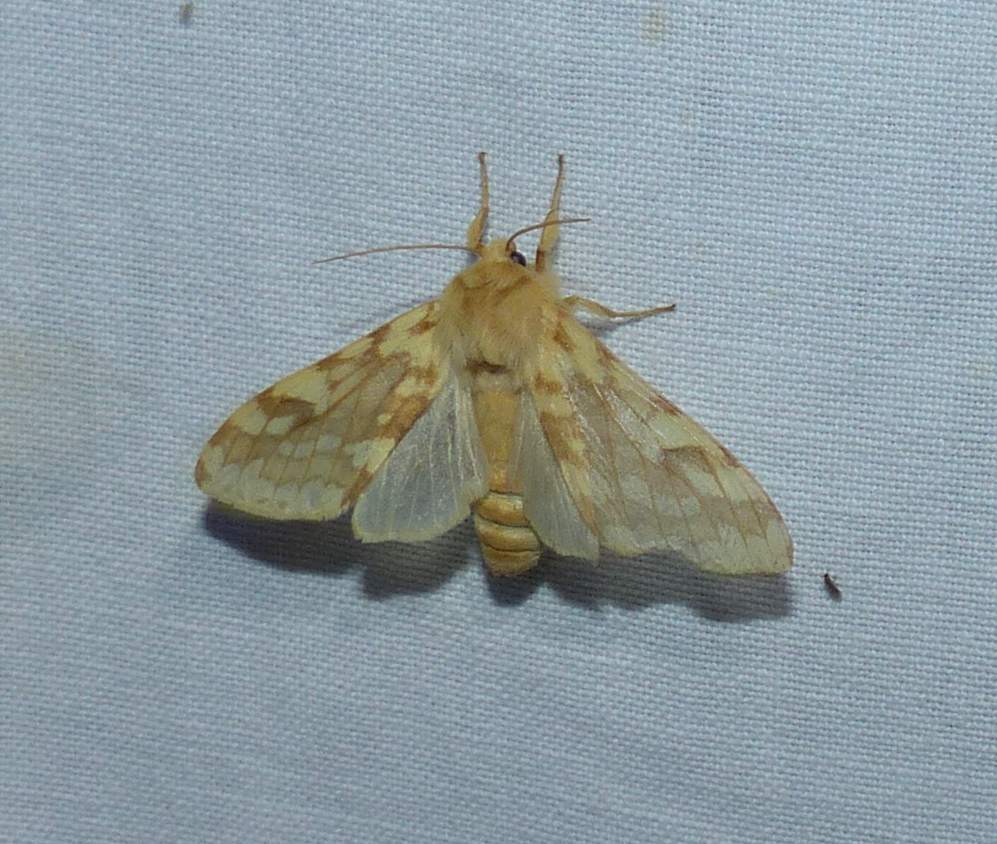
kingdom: Animalia
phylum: Arthropoda
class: Insecta
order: Lepidoptera
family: Erebidae
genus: Lophocampa
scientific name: Lophocampa maculata
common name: Spotted tussock moth
